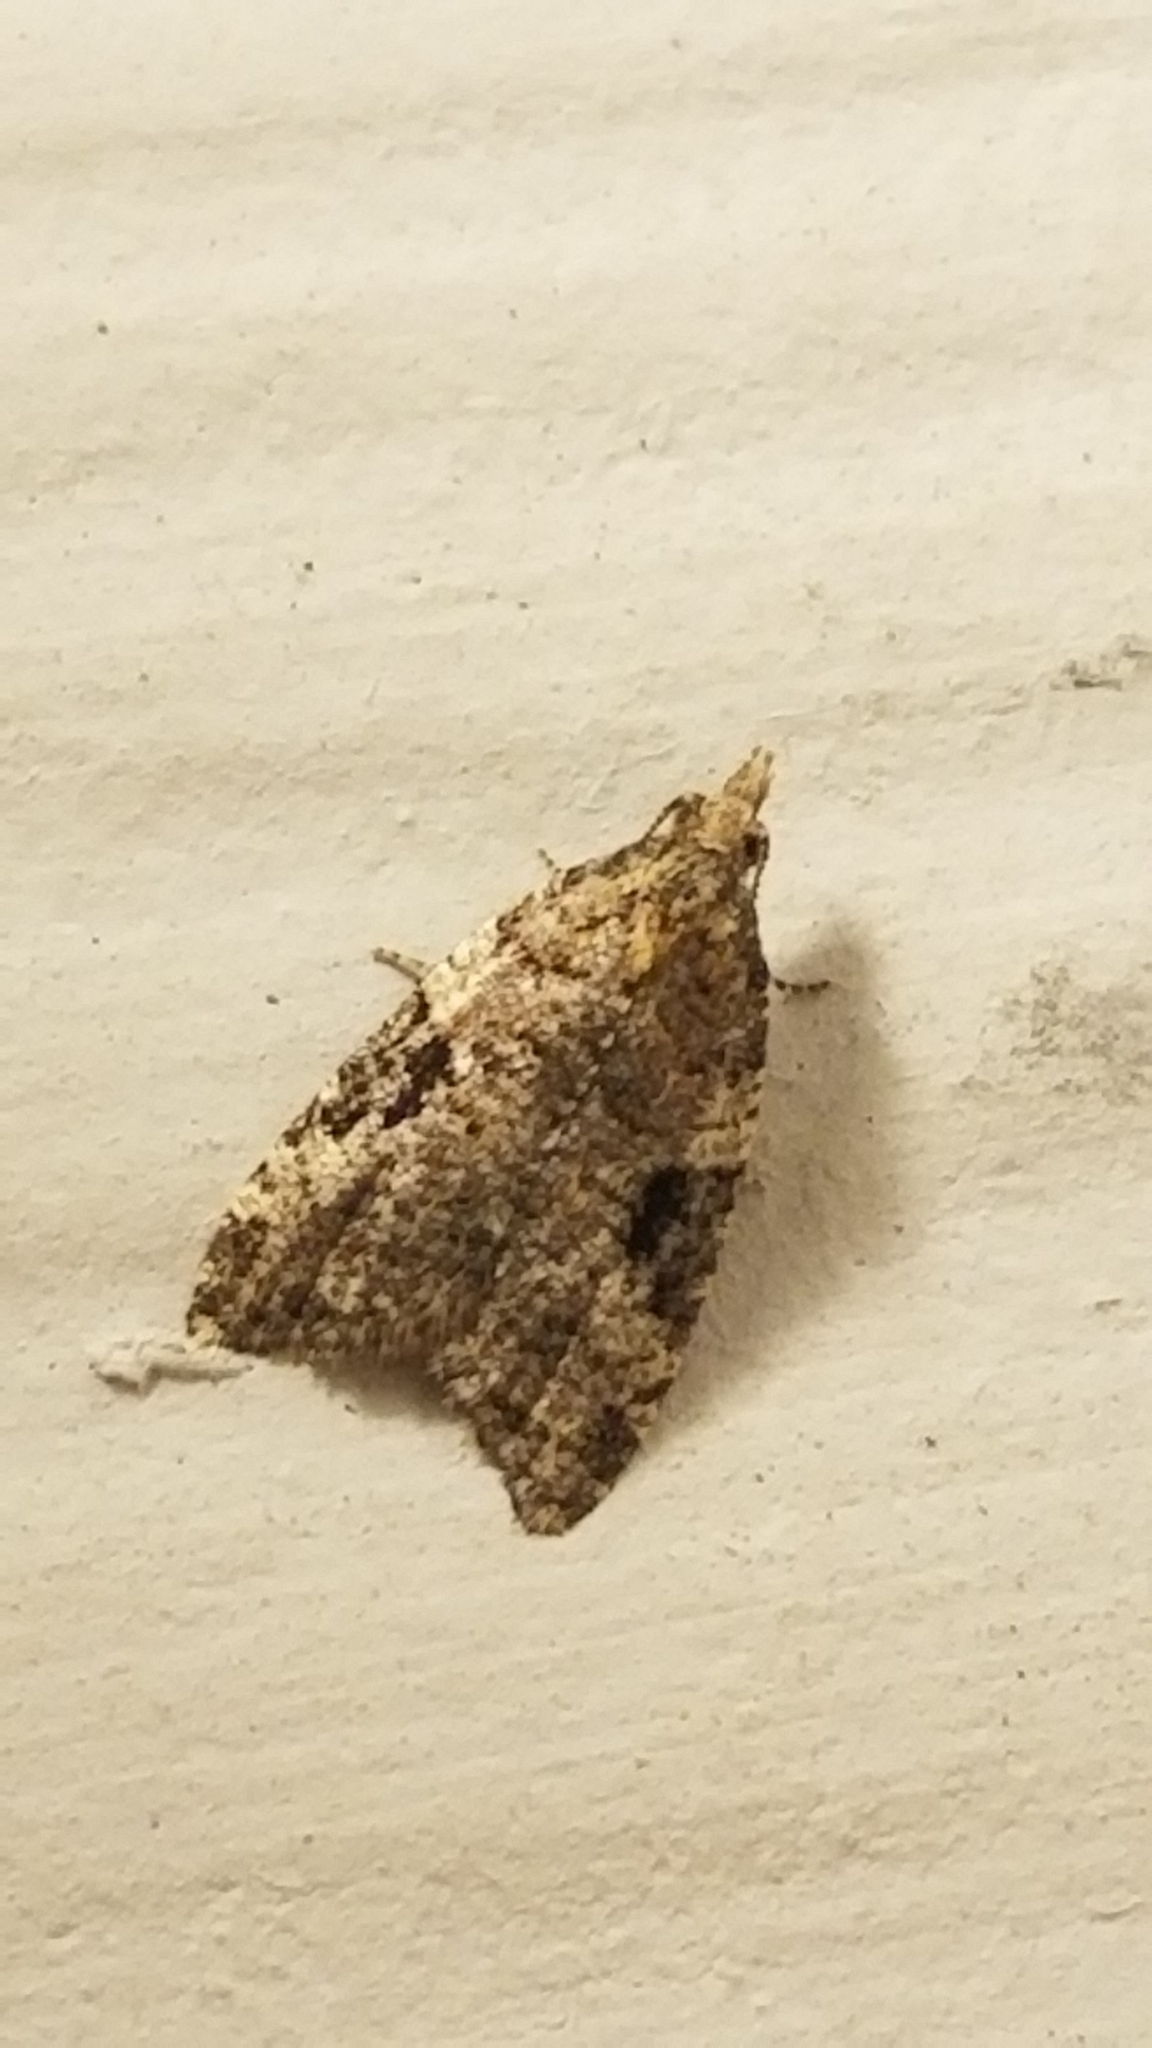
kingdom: Animalia
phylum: Arthropoda
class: Insecta
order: Lepidoptera
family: Tortricidae
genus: Anopina
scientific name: Anopina triangulana
